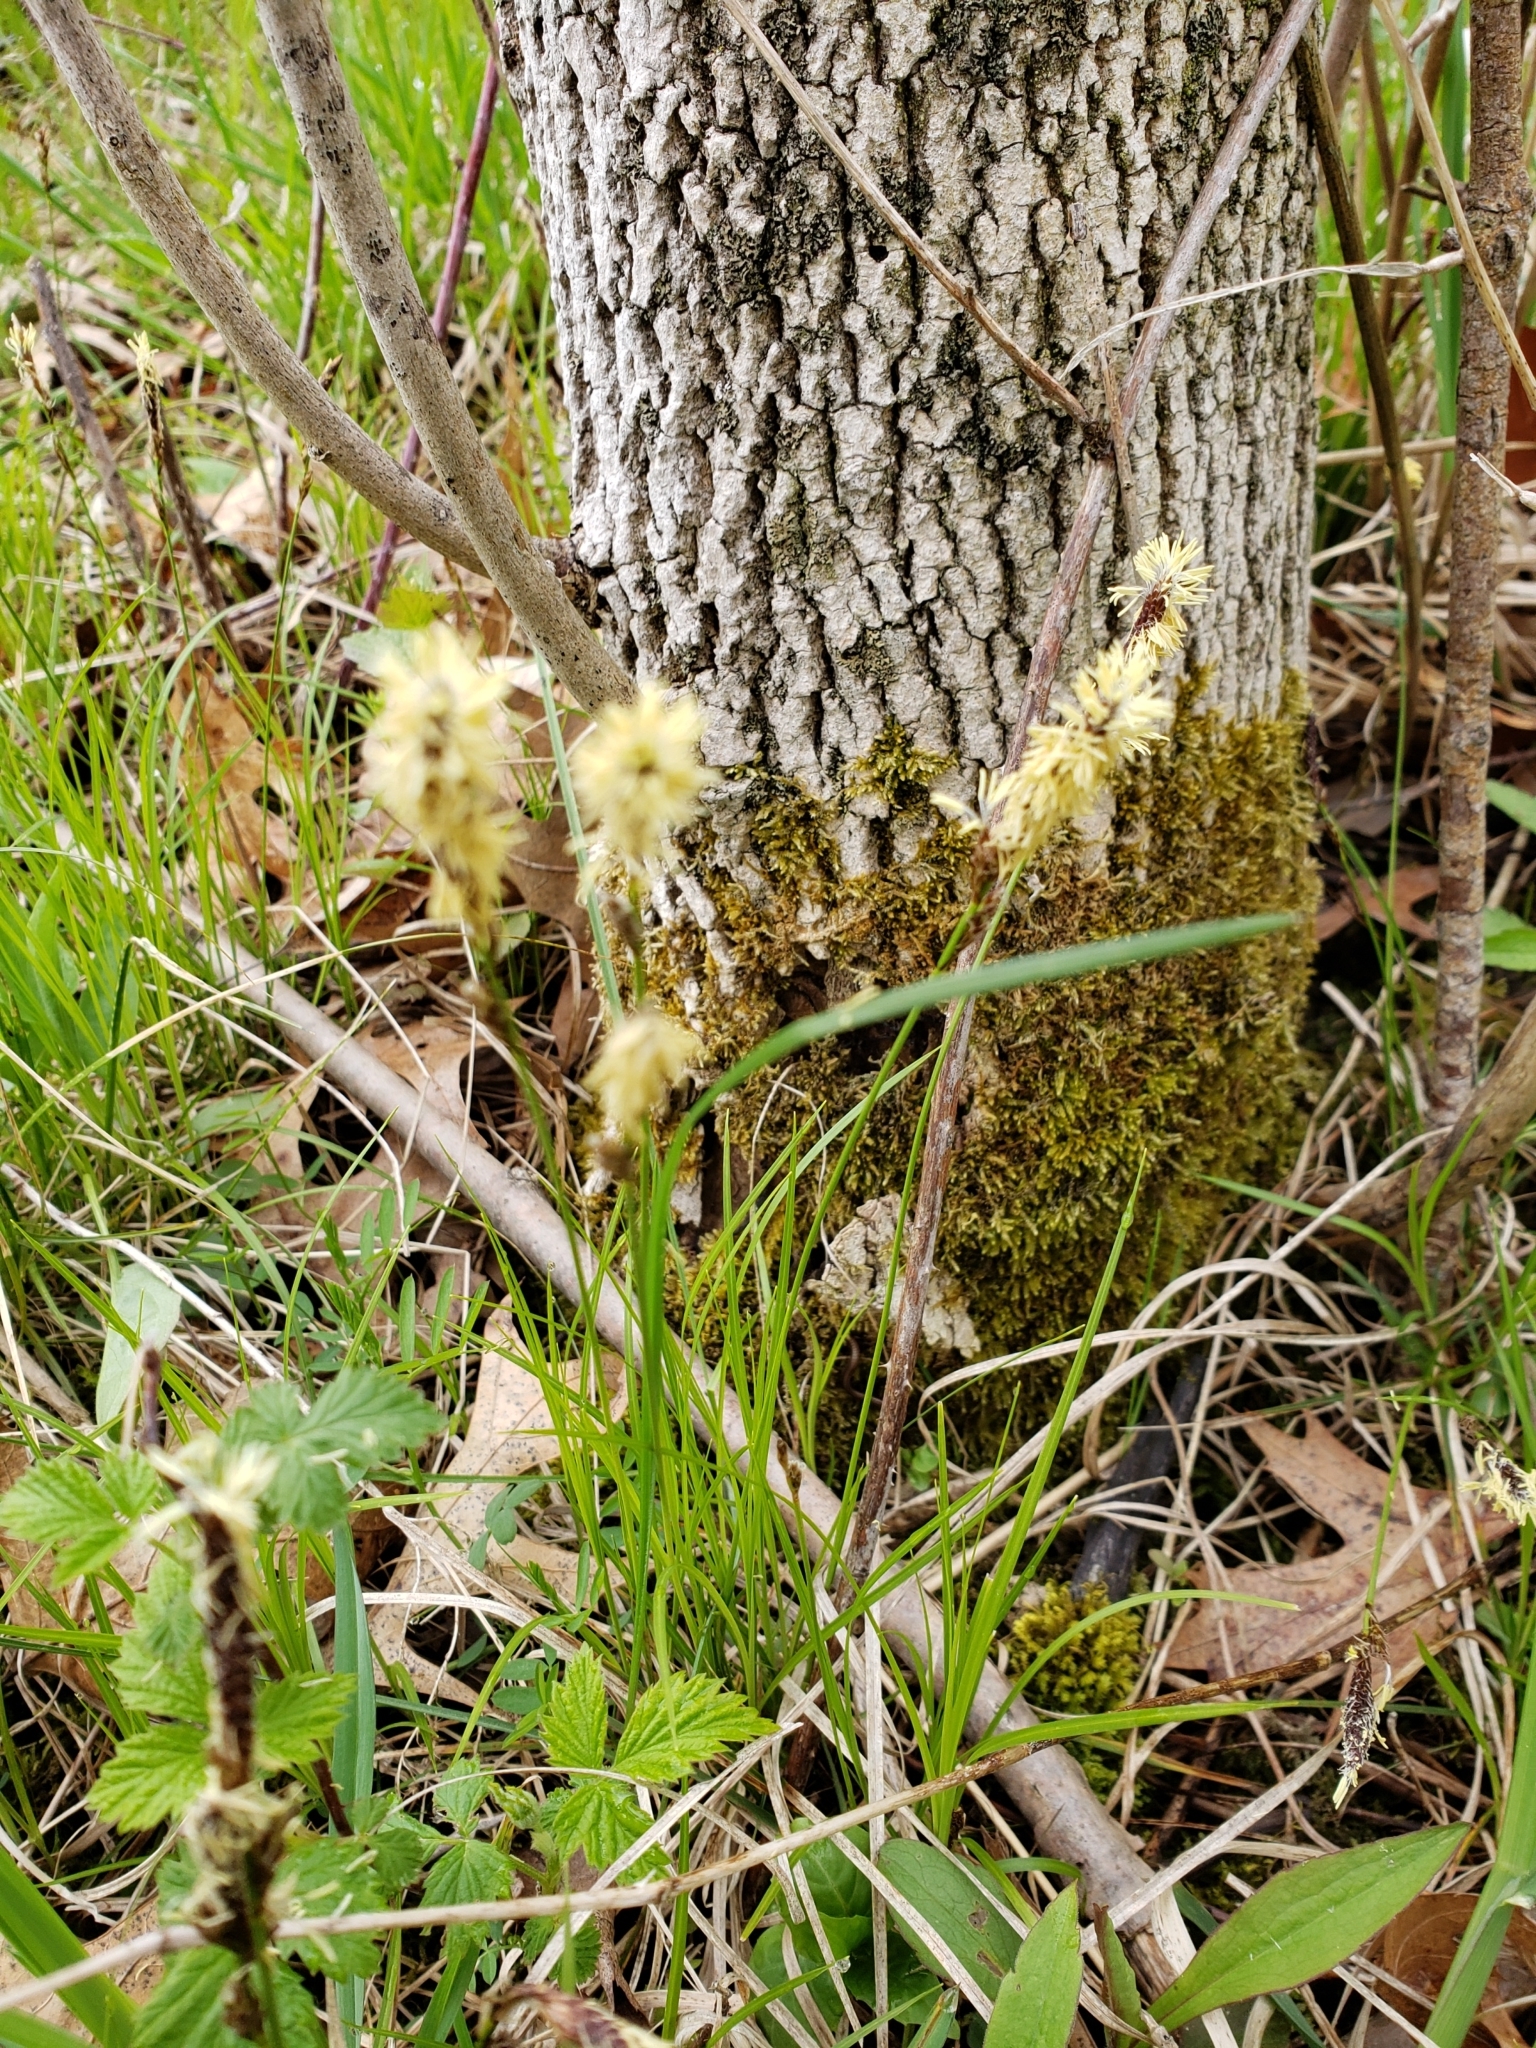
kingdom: Plantae
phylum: Tracheophyta
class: Liliopsida
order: Poales
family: Cyperaceae
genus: Carex
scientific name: Carex pensylvanica
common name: Common oak sedge
